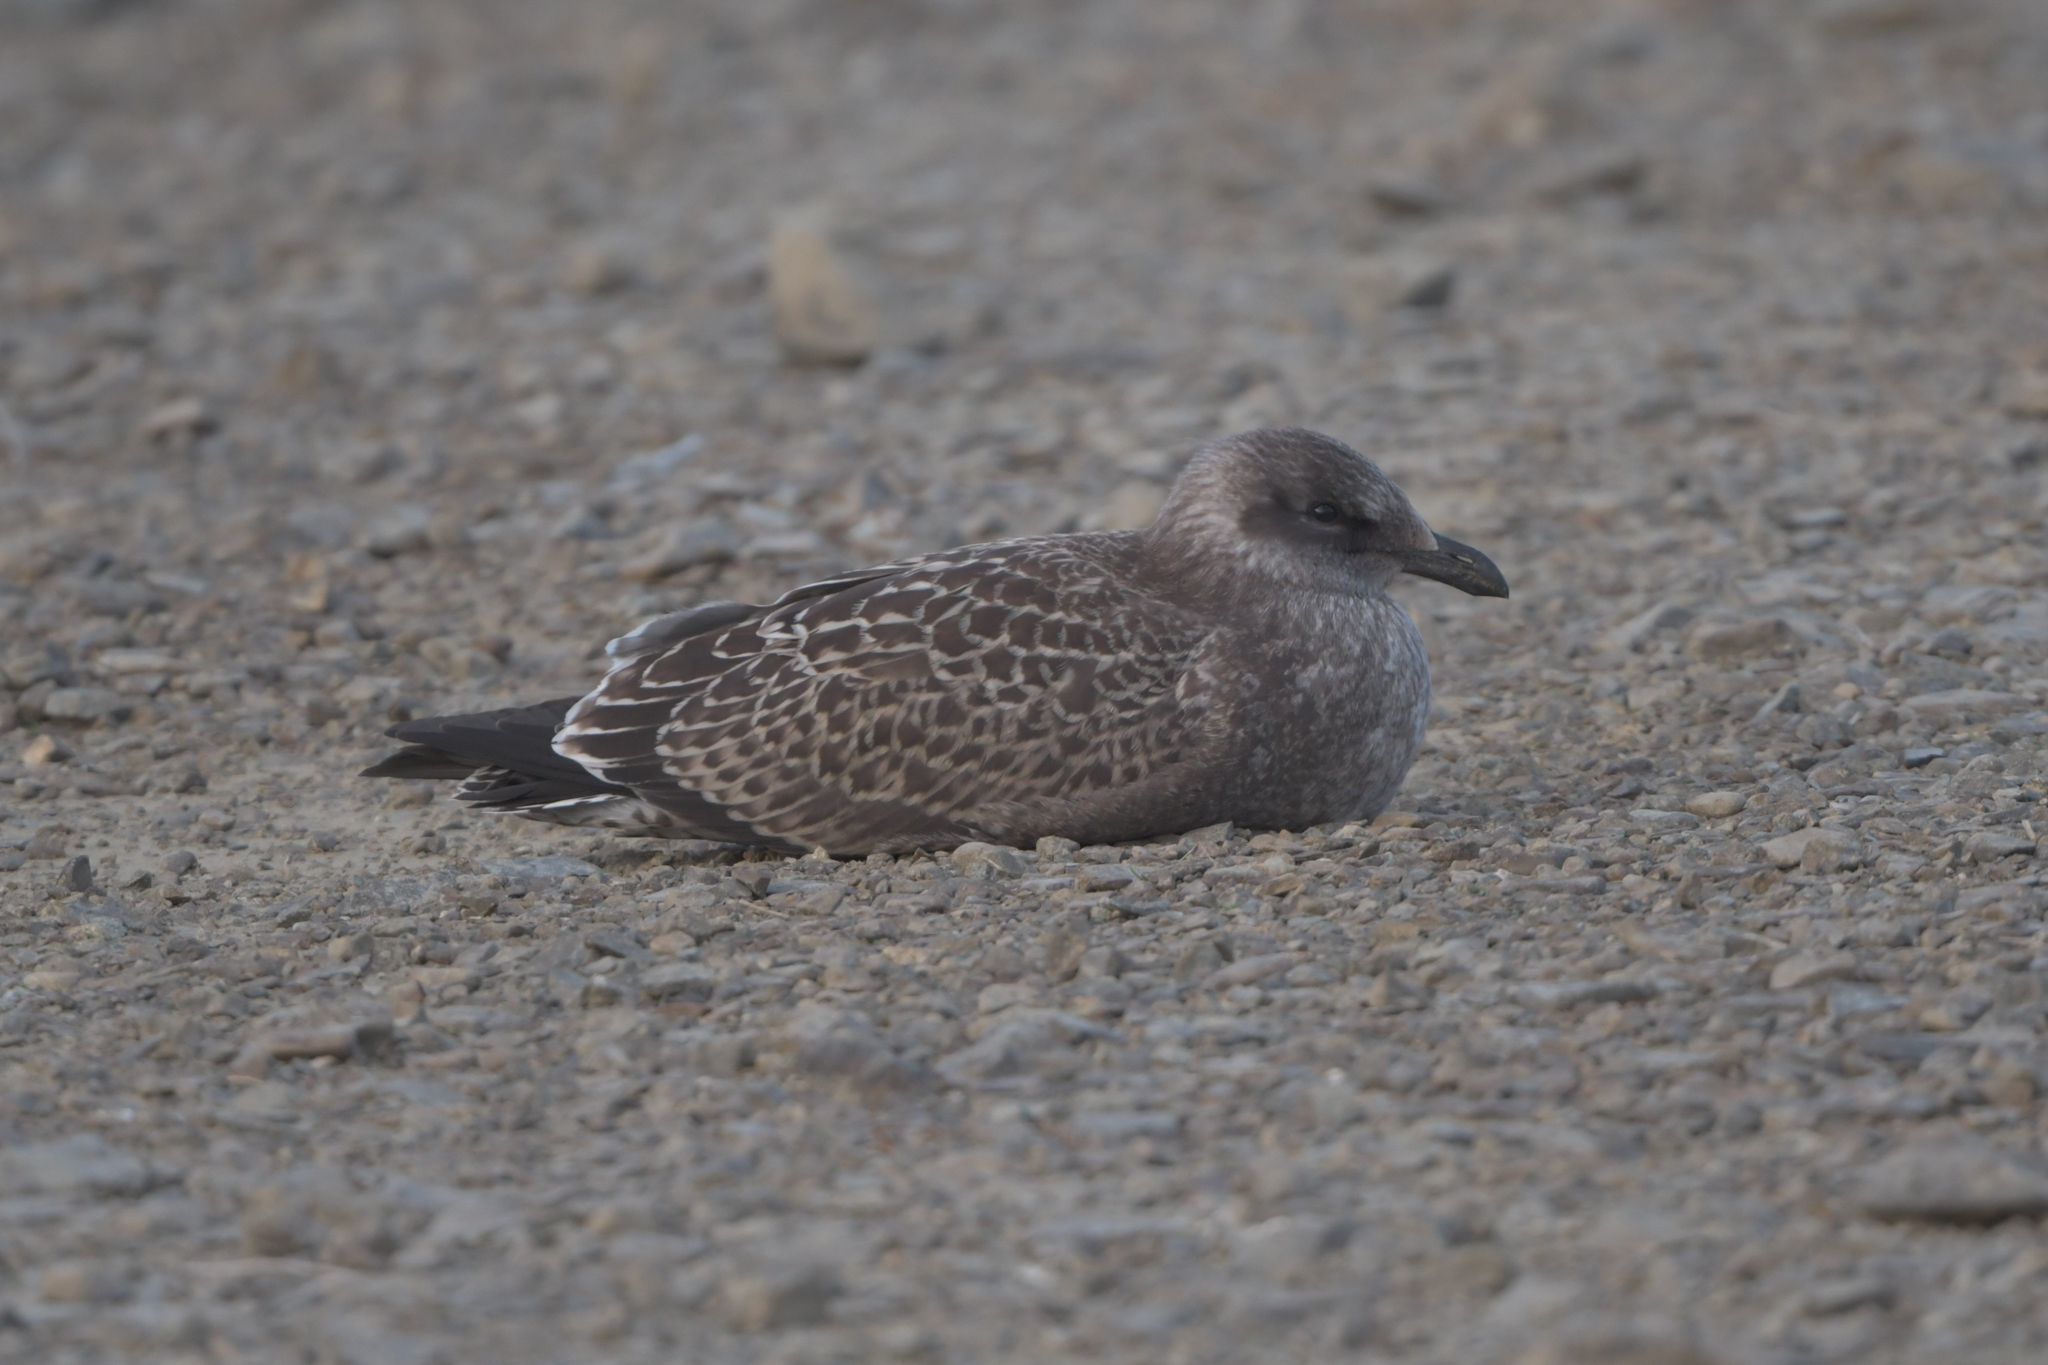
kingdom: Animalia
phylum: Chordata
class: Aves
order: Charadriiformes
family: Laridae
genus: Larus
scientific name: Larus dominicanus
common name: Kelp gull
